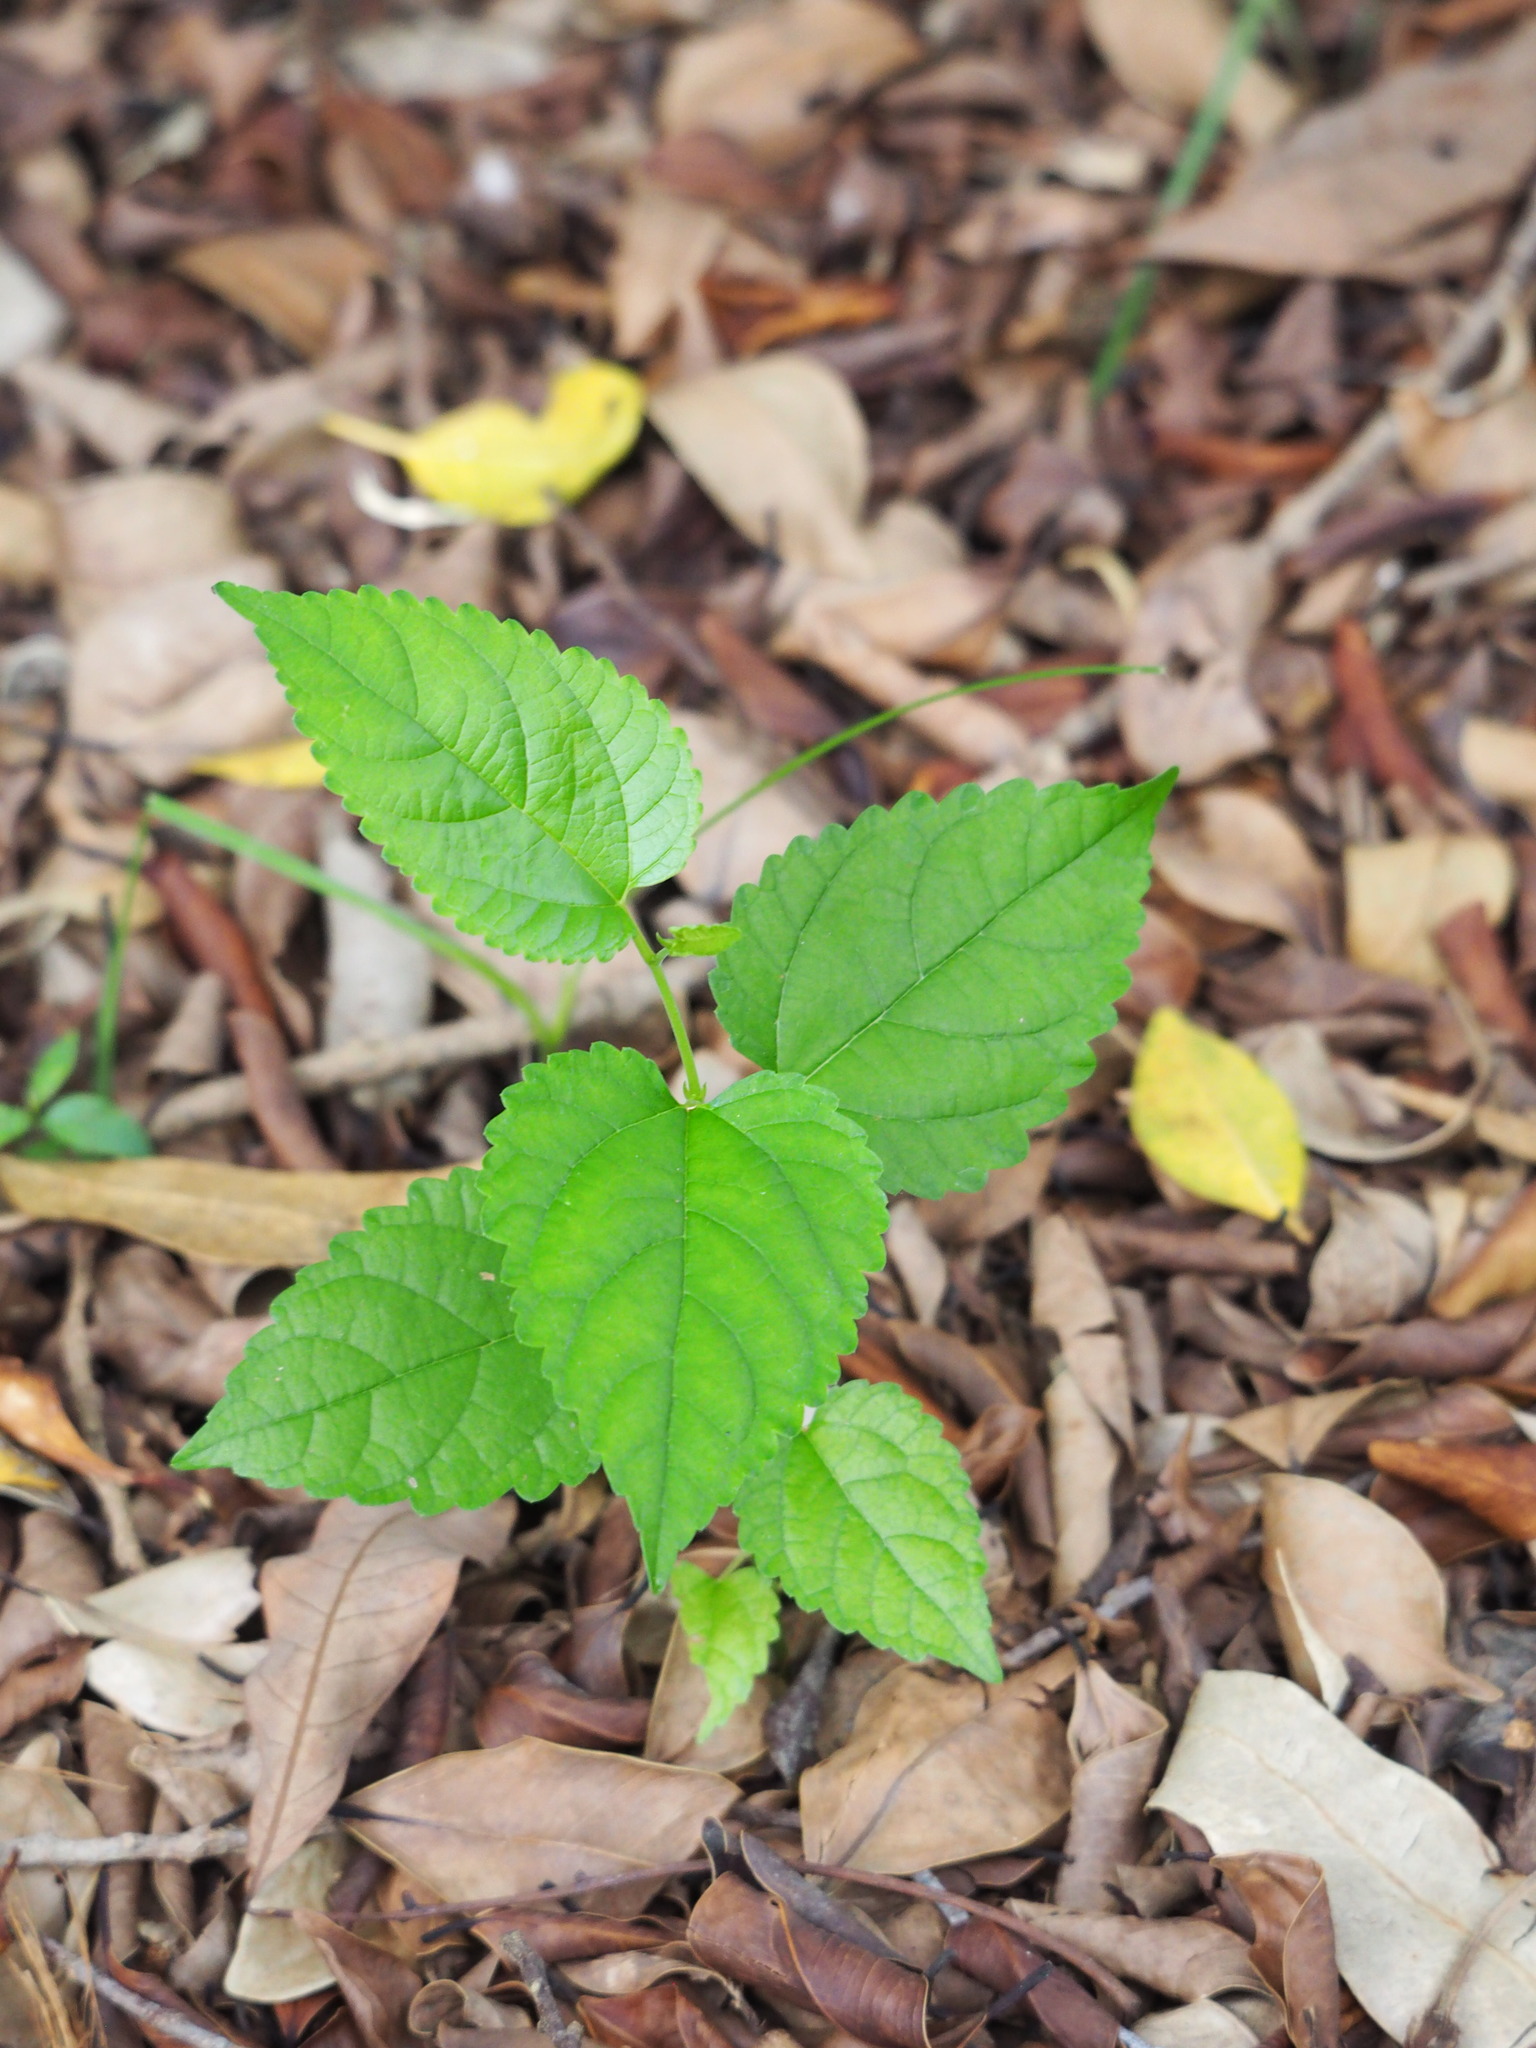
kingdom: Plantae
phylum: Tracheophyta
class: Magnoliopsida
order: Rosales
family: Moraceae
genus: Morus
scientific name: Morus indica
